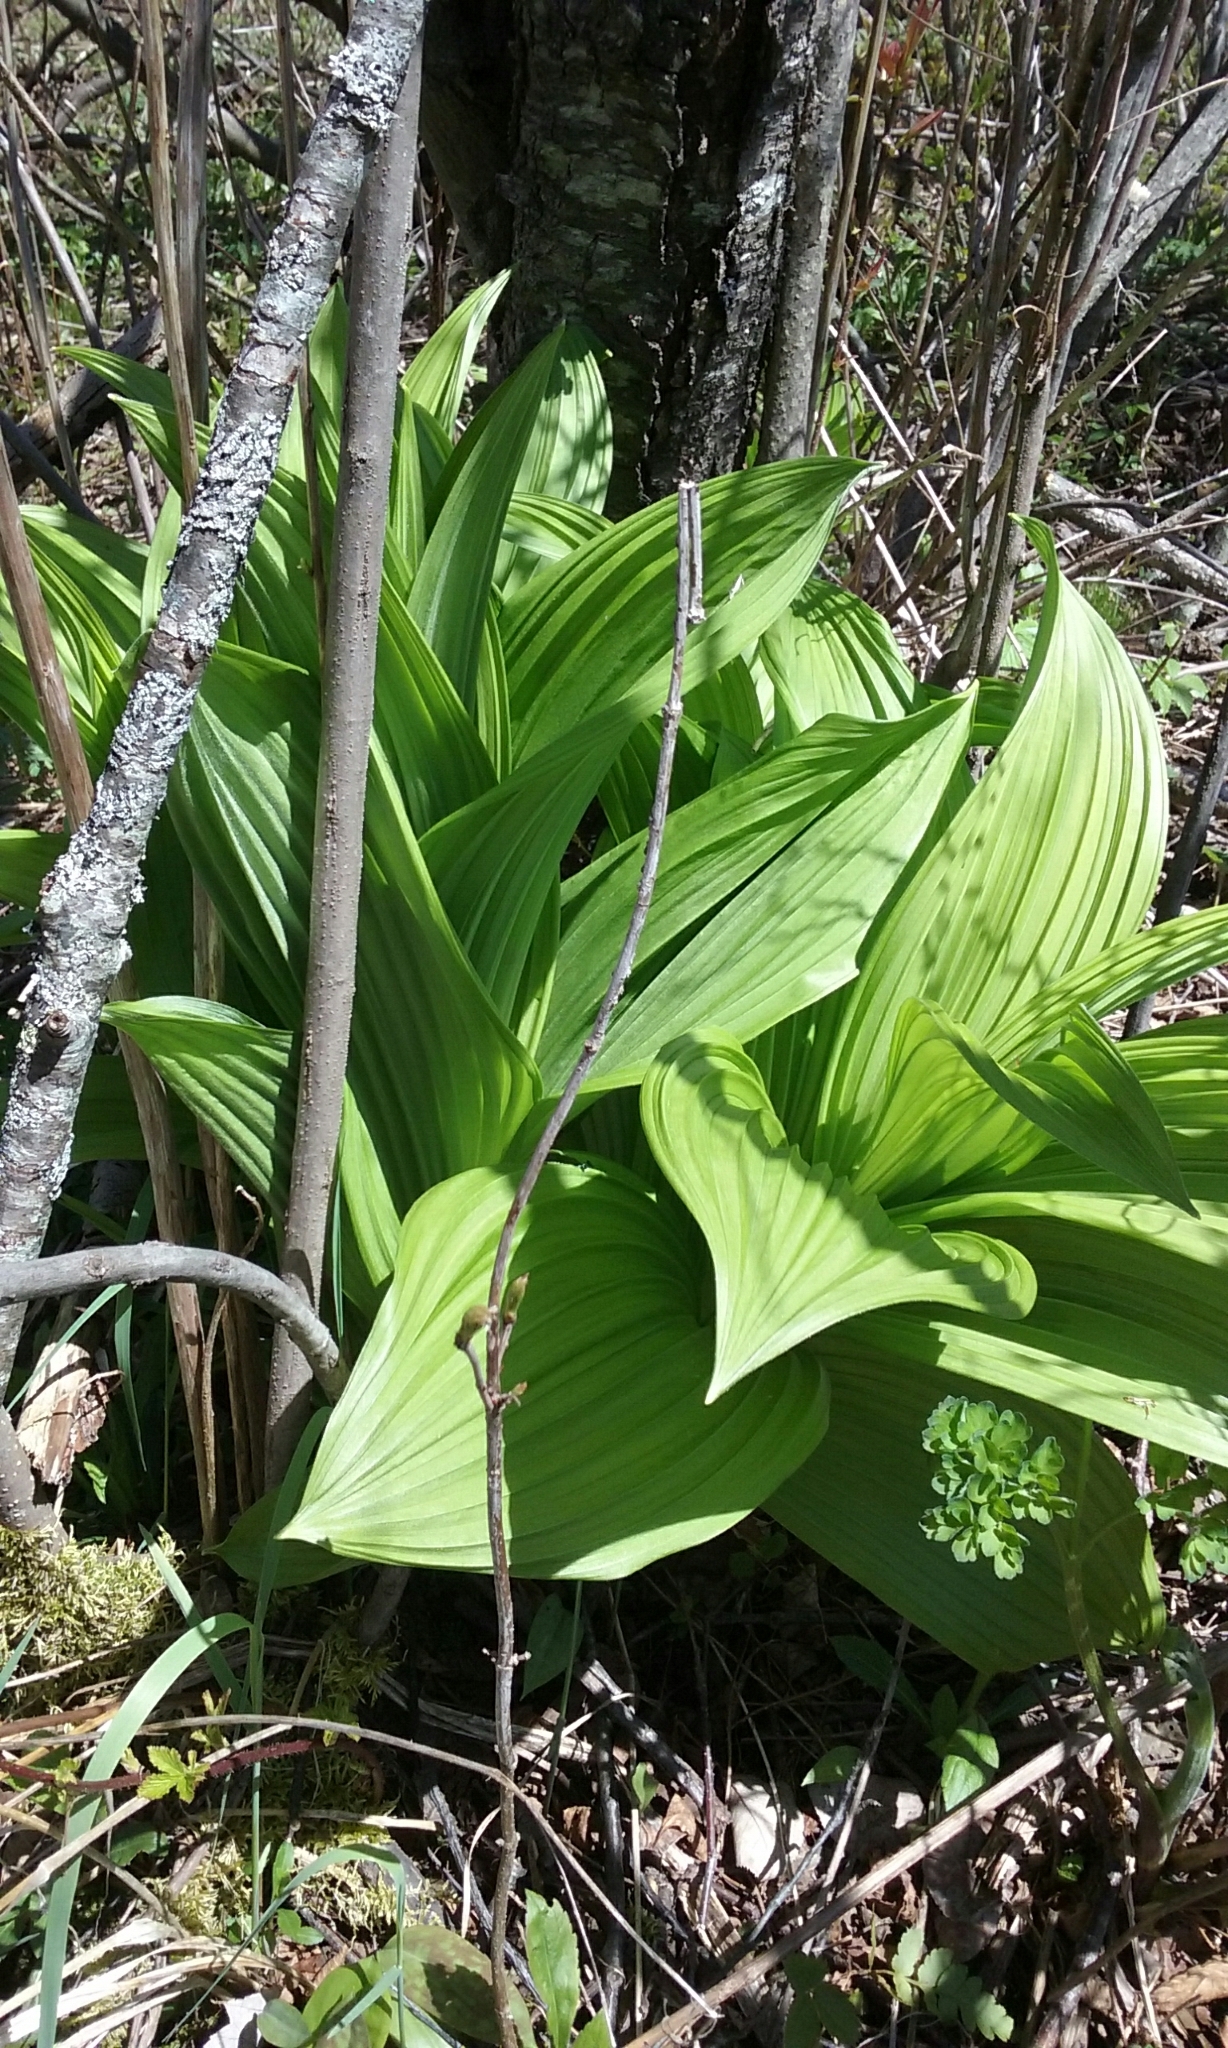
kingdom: Plantae
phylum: Tracheophyta
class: Liliopsida
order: Liliales
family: Melanthiaceae
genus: Veratrum
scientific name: Veratrum viride
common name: American false hellebore
